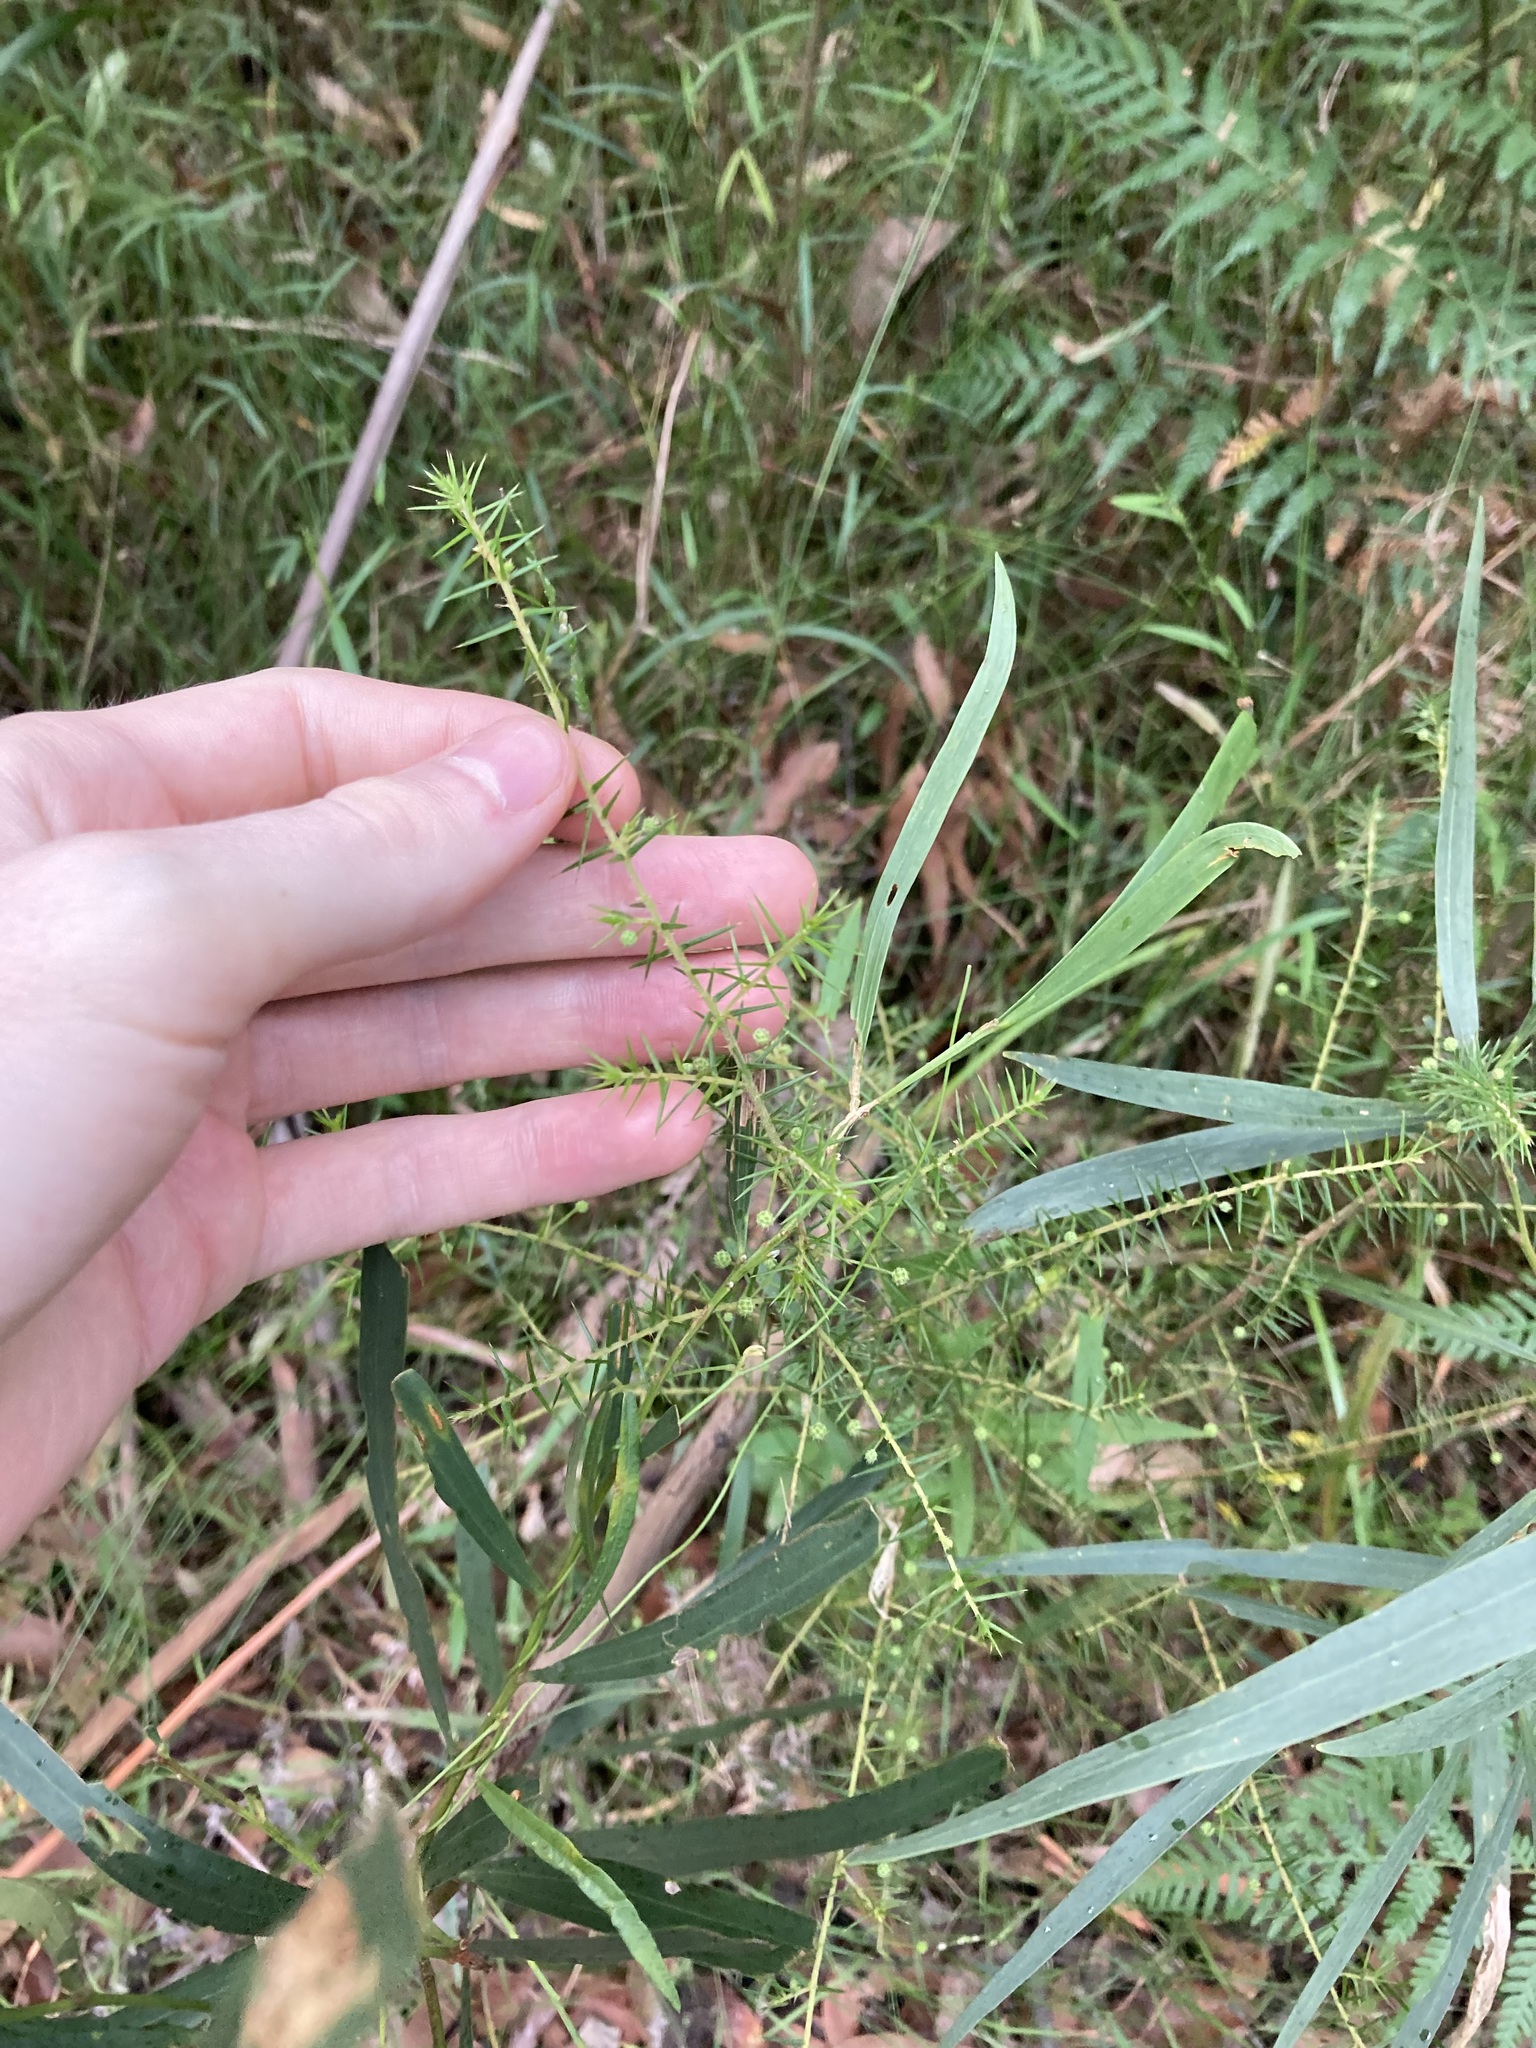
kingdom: Plantae
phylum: Tracheophyta
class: Magnoliopsida
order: Fabales
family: Fabaceae
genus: Acacia
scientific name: Acacia ulicifolia
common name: Juniper wattle
